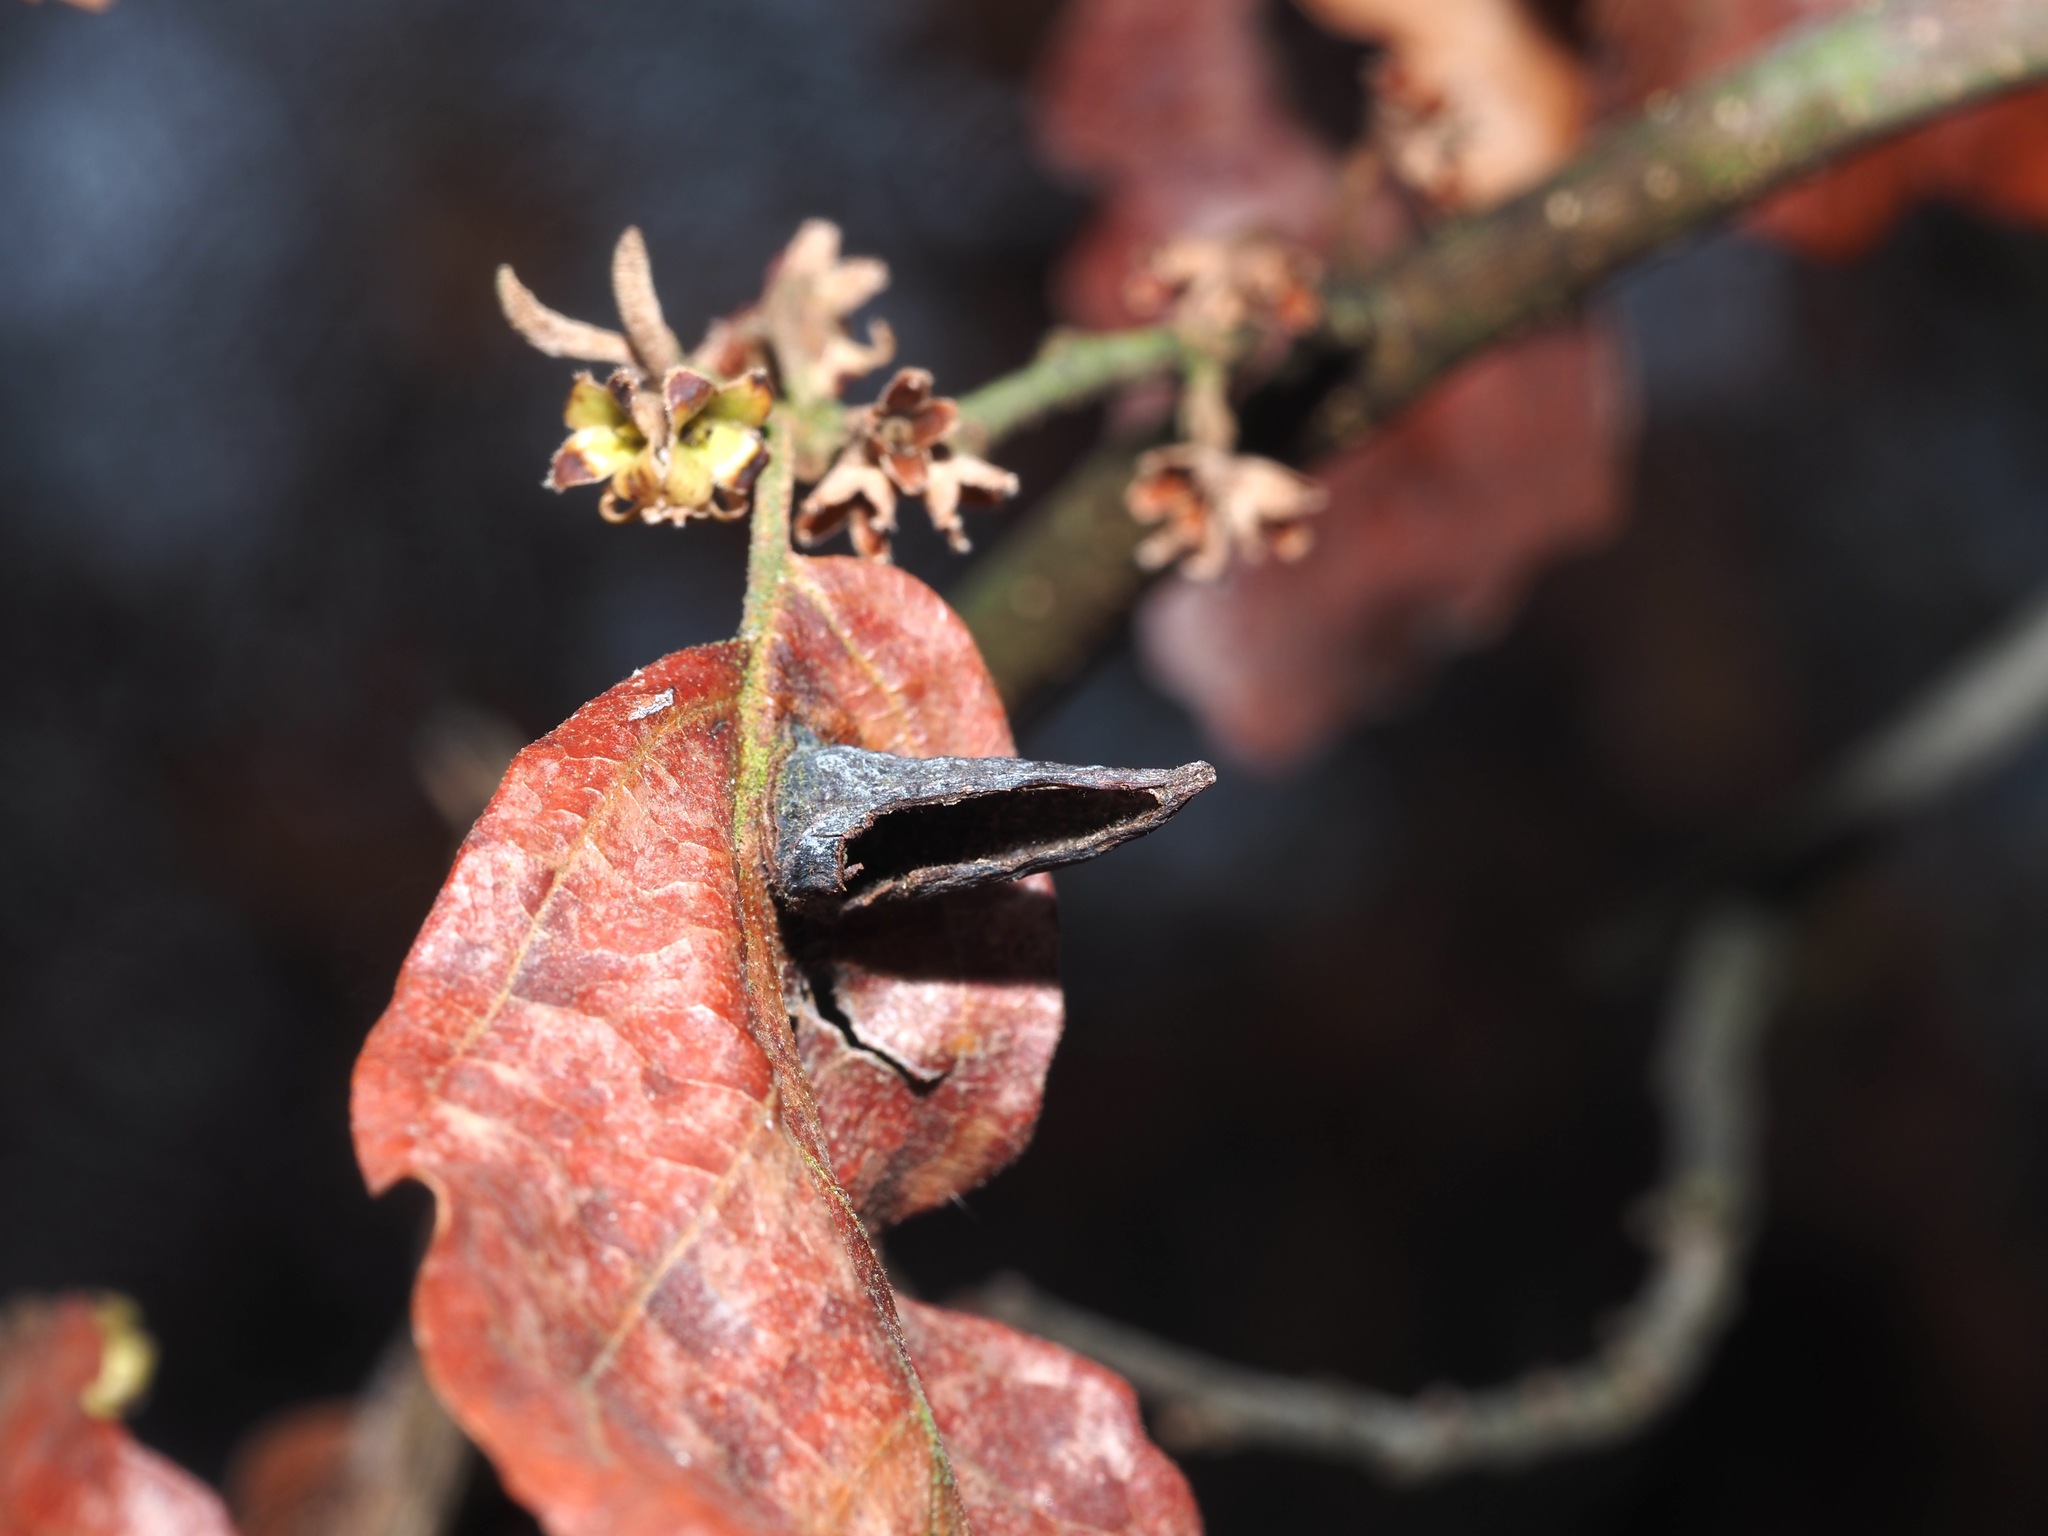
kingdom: Animalia
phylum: Arthropoda
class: Insecta
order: Hemiptera
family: Aphididae
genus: Hormaphis
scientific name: Hormaphis hamamelidis
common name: Witch-hazel cone gall aphid
